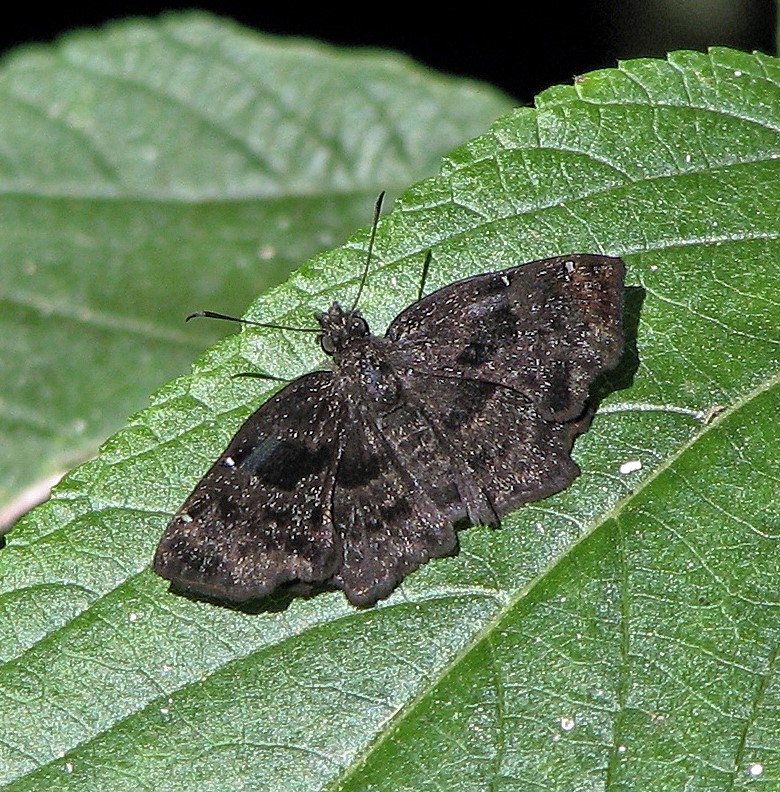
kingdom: Animalia
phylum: Arthropoda
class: Insecta
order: Lepidoptera
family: Hesperiidae
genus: Antigonus
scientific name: Antigonus liborius
